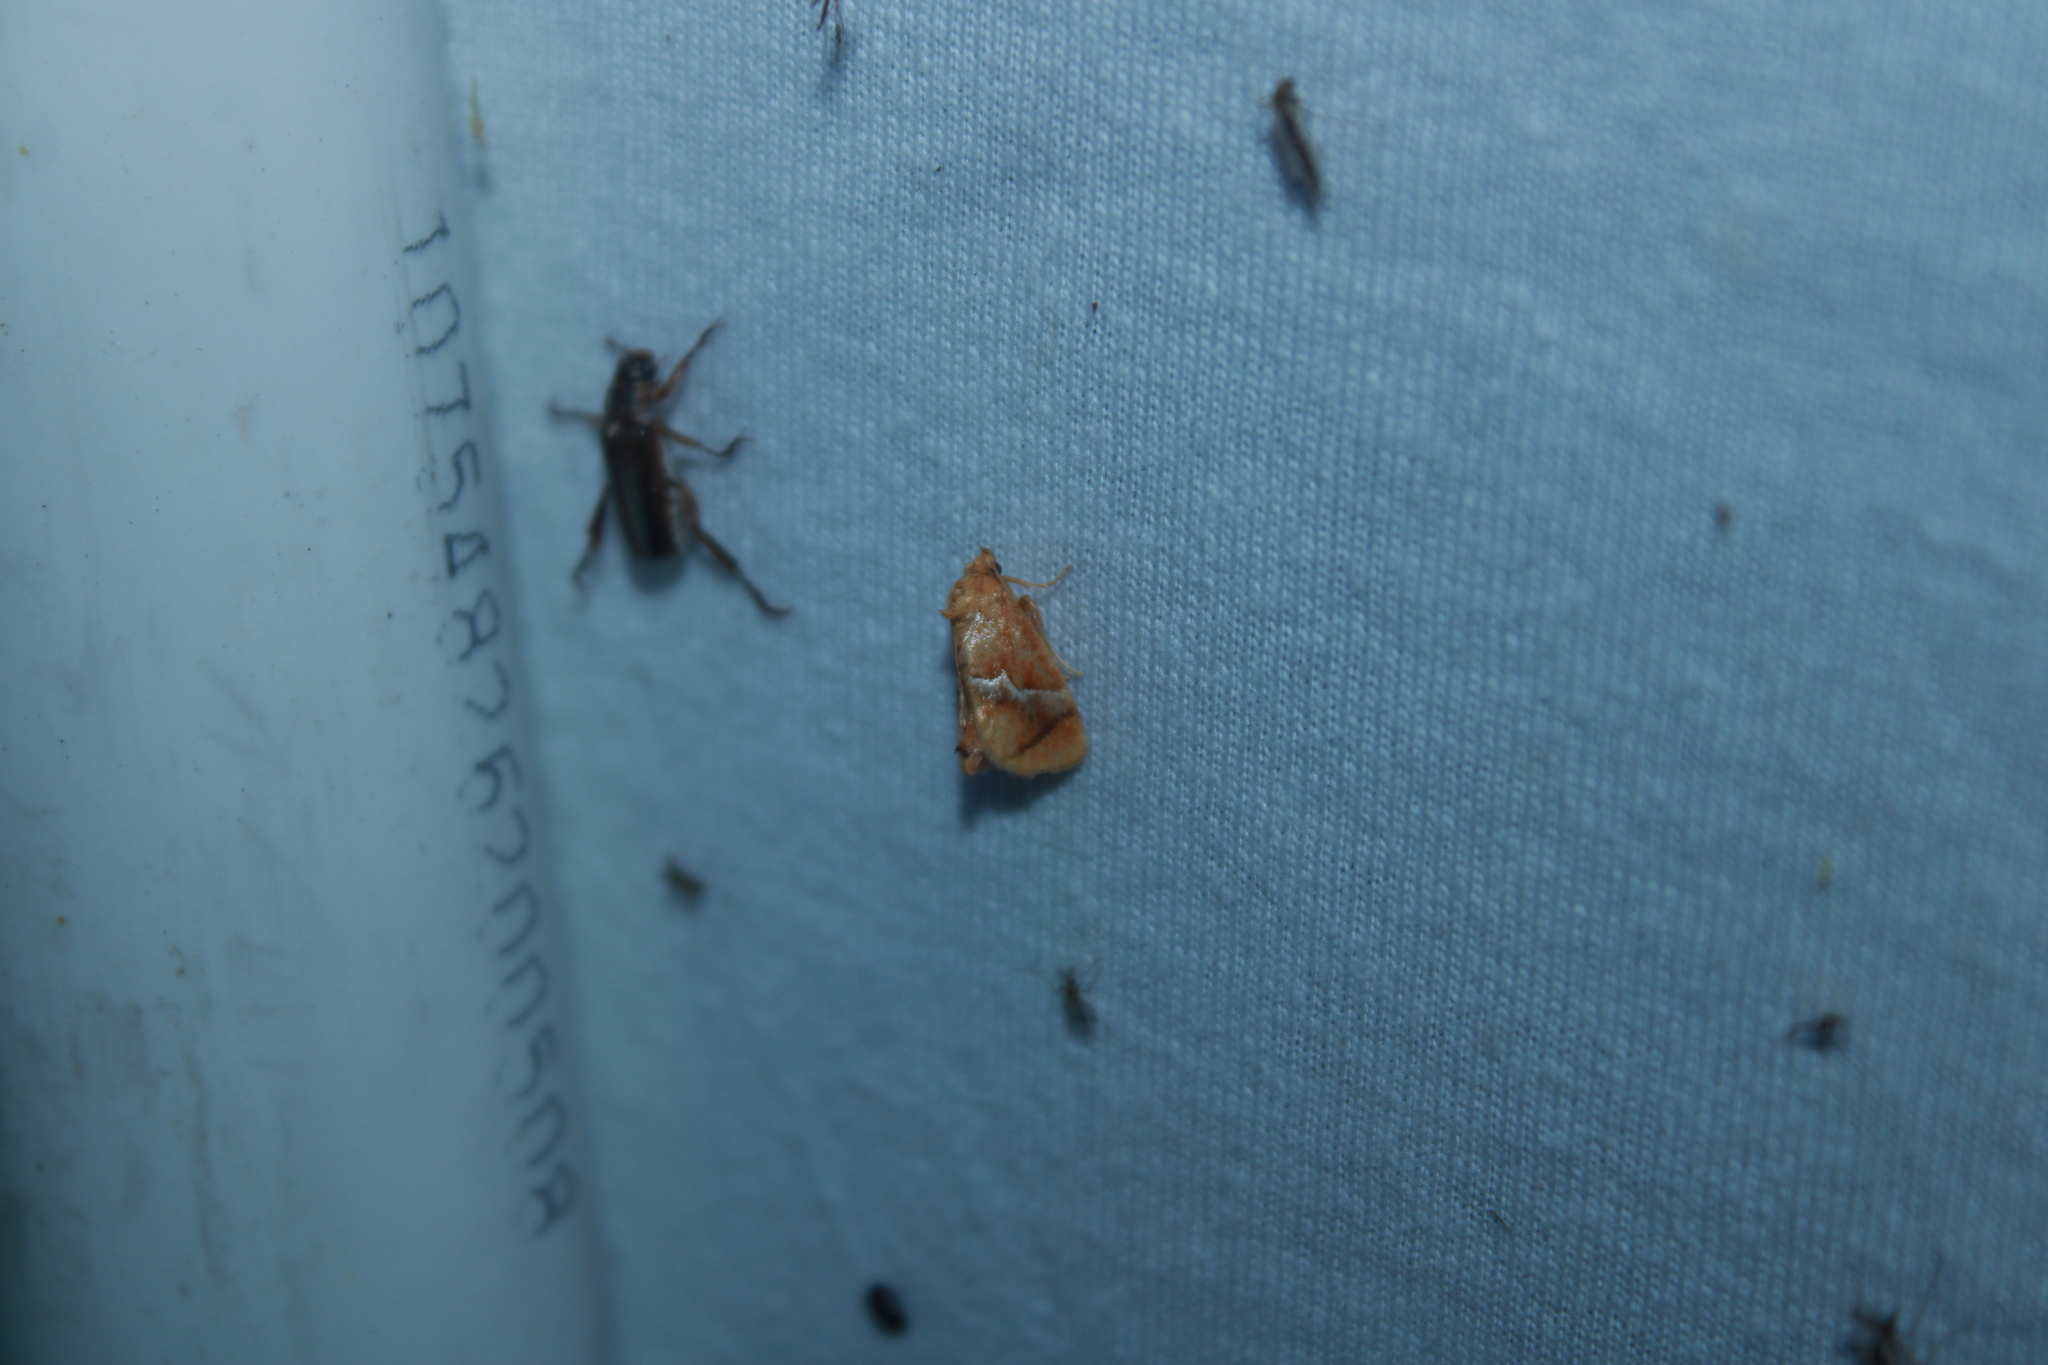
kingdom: Animalia
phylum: Arthropoda
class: Insecta
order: Lepidoptera
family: Limacodidae
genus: Lithacodes
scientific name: Lithacodes fasciola
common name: Yellow-shouldered slug moth
